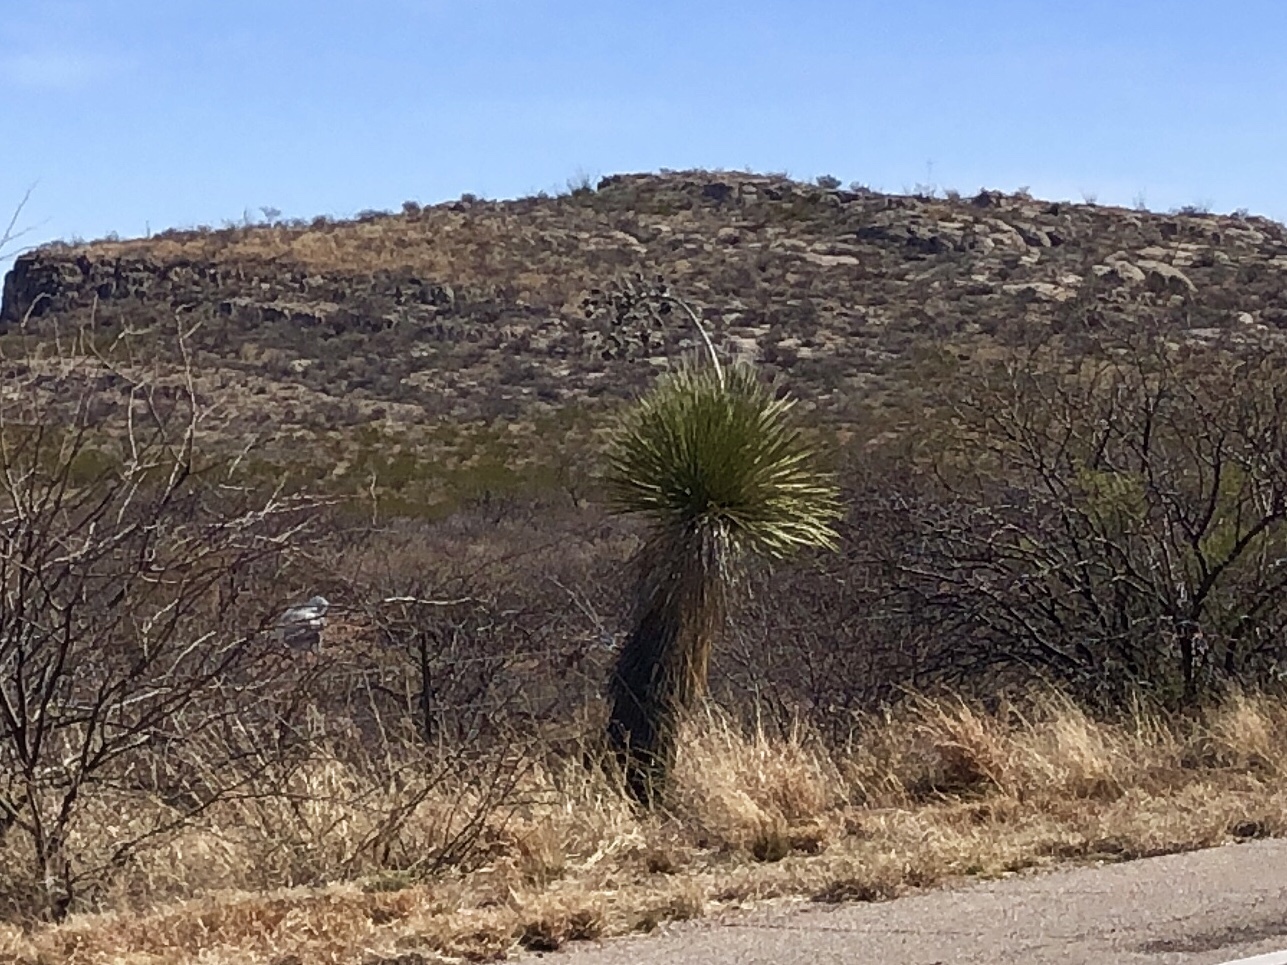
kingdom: Plantae
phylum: Tracheophyta
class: Liliopsida
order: Asparagales
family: Asparagaceae
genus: Yucca
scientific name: Yucca elata
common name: Palmella
